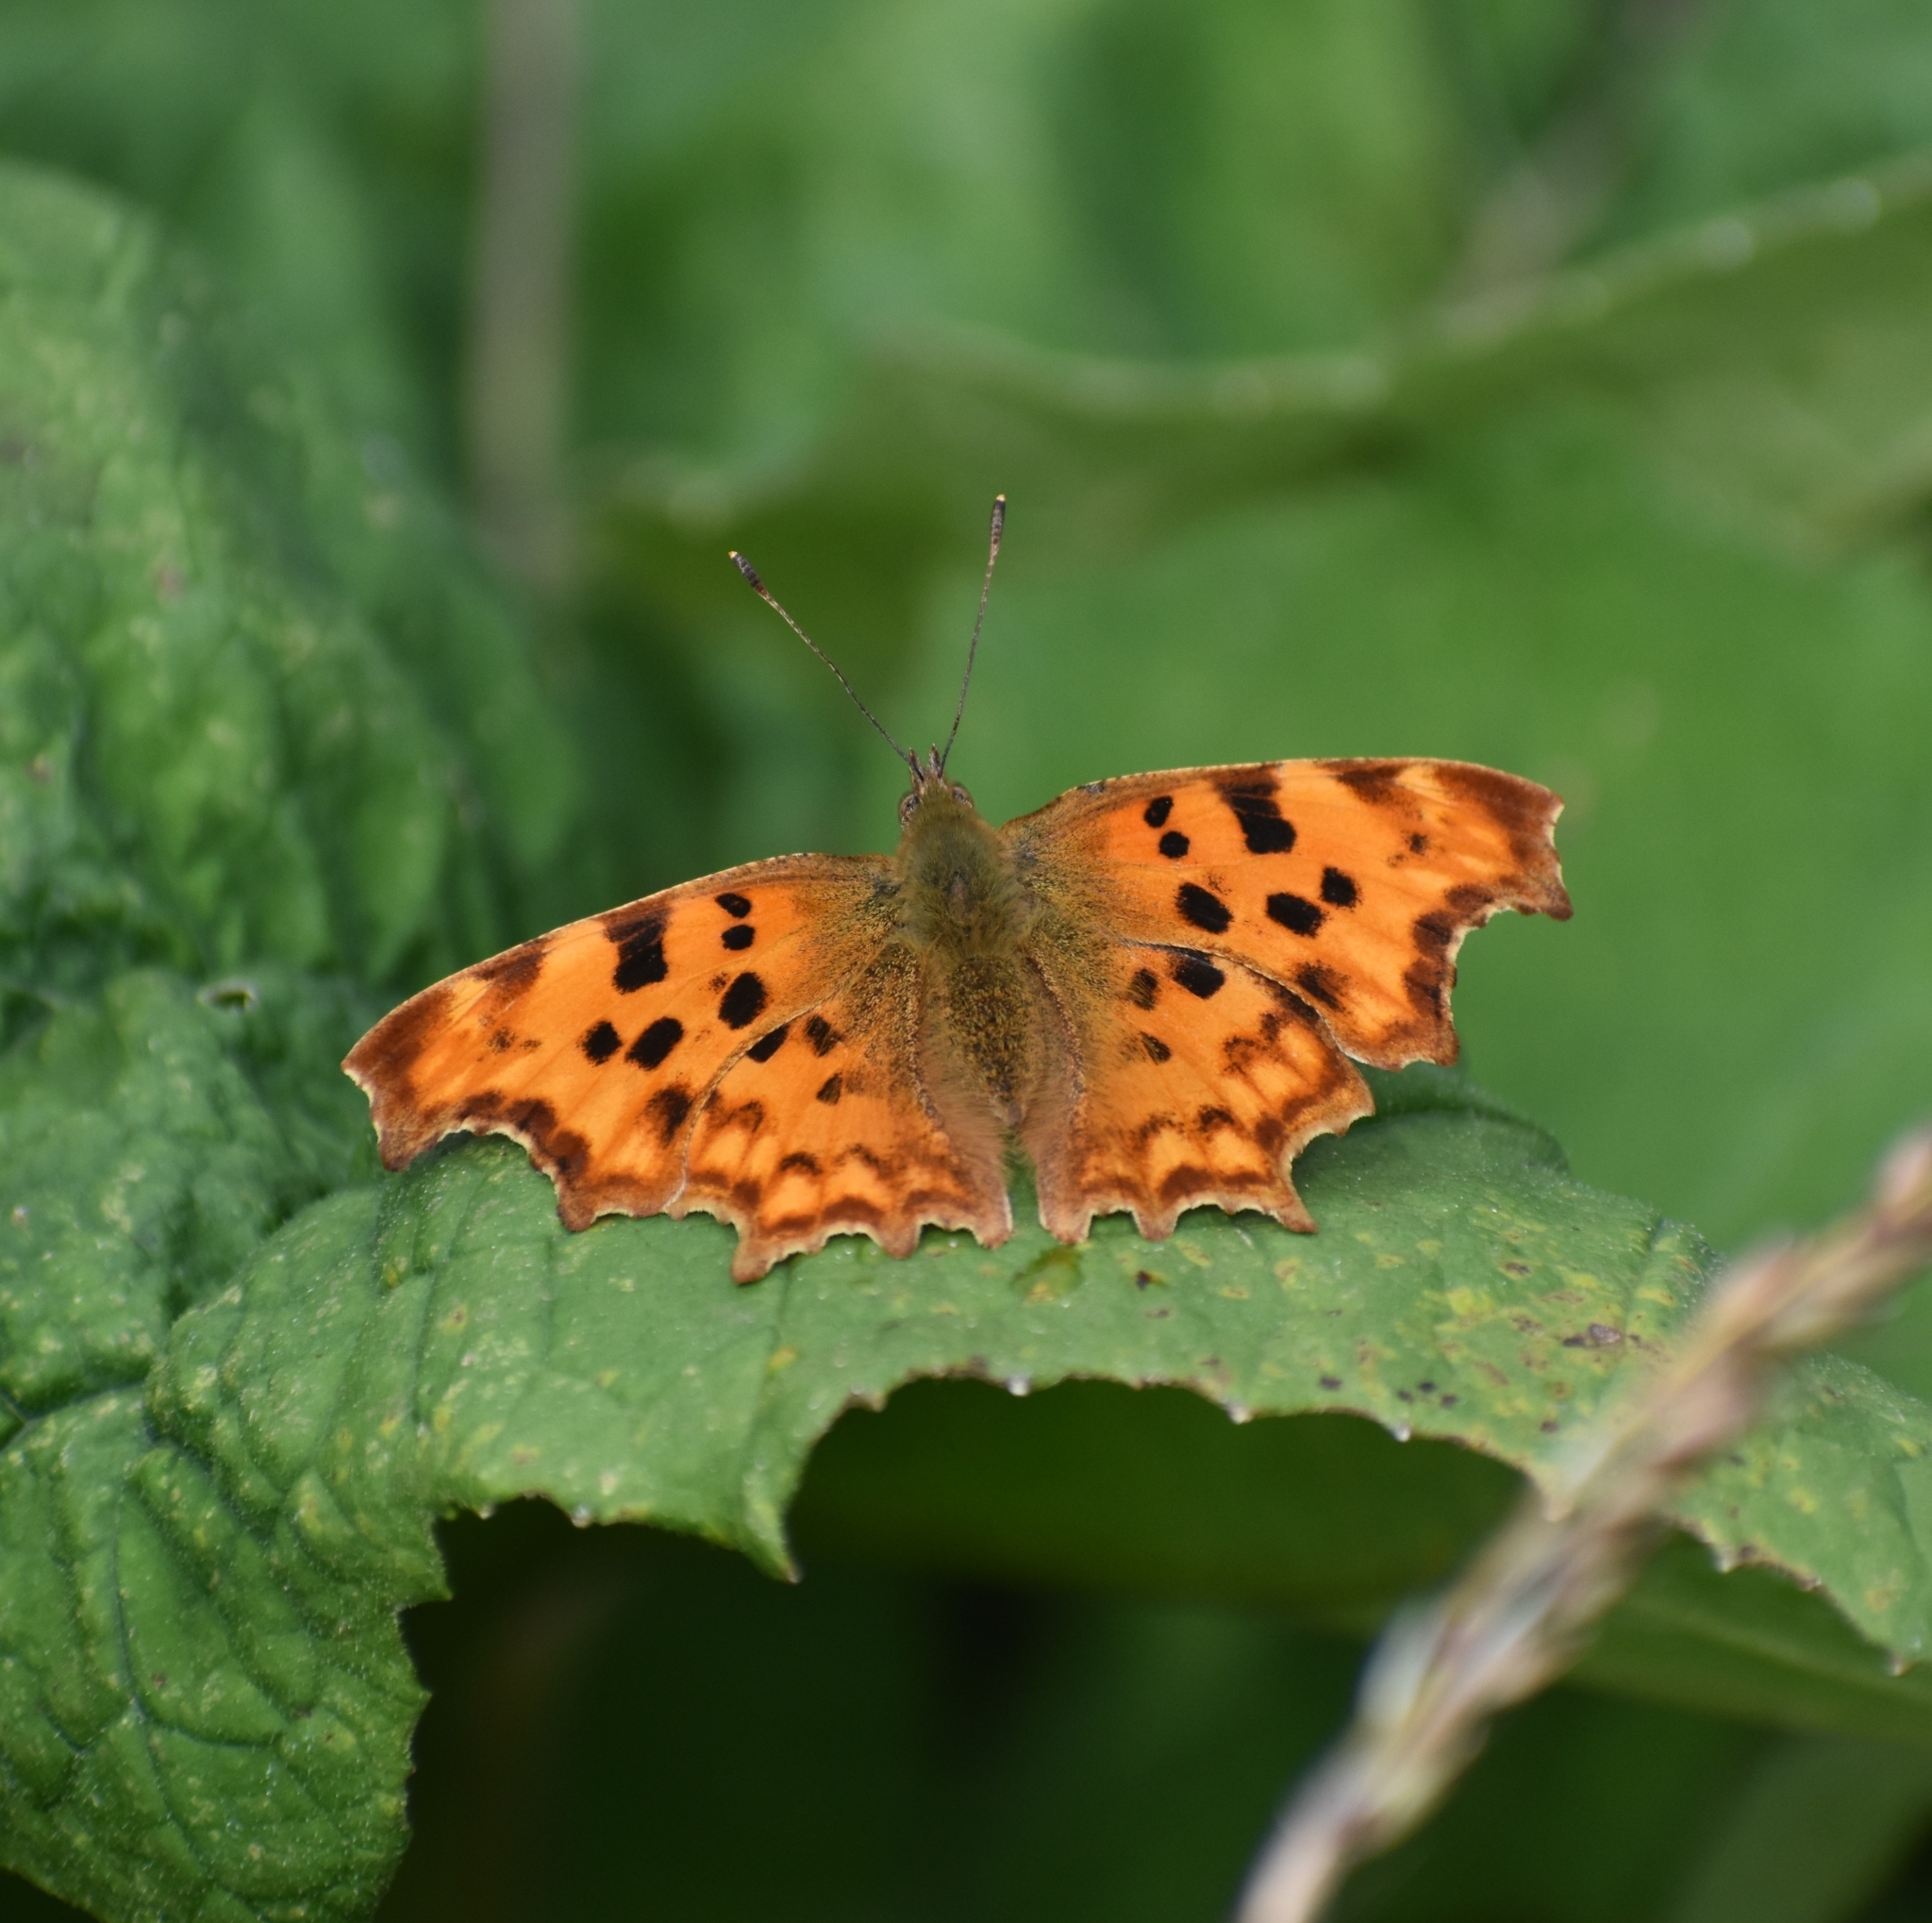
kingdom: Animalia
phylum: Arthropoda
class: Insecta
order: Lepidoptera
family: Nymphalidae
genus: Polygonia
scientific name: Polygonia c-album
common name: Comma
